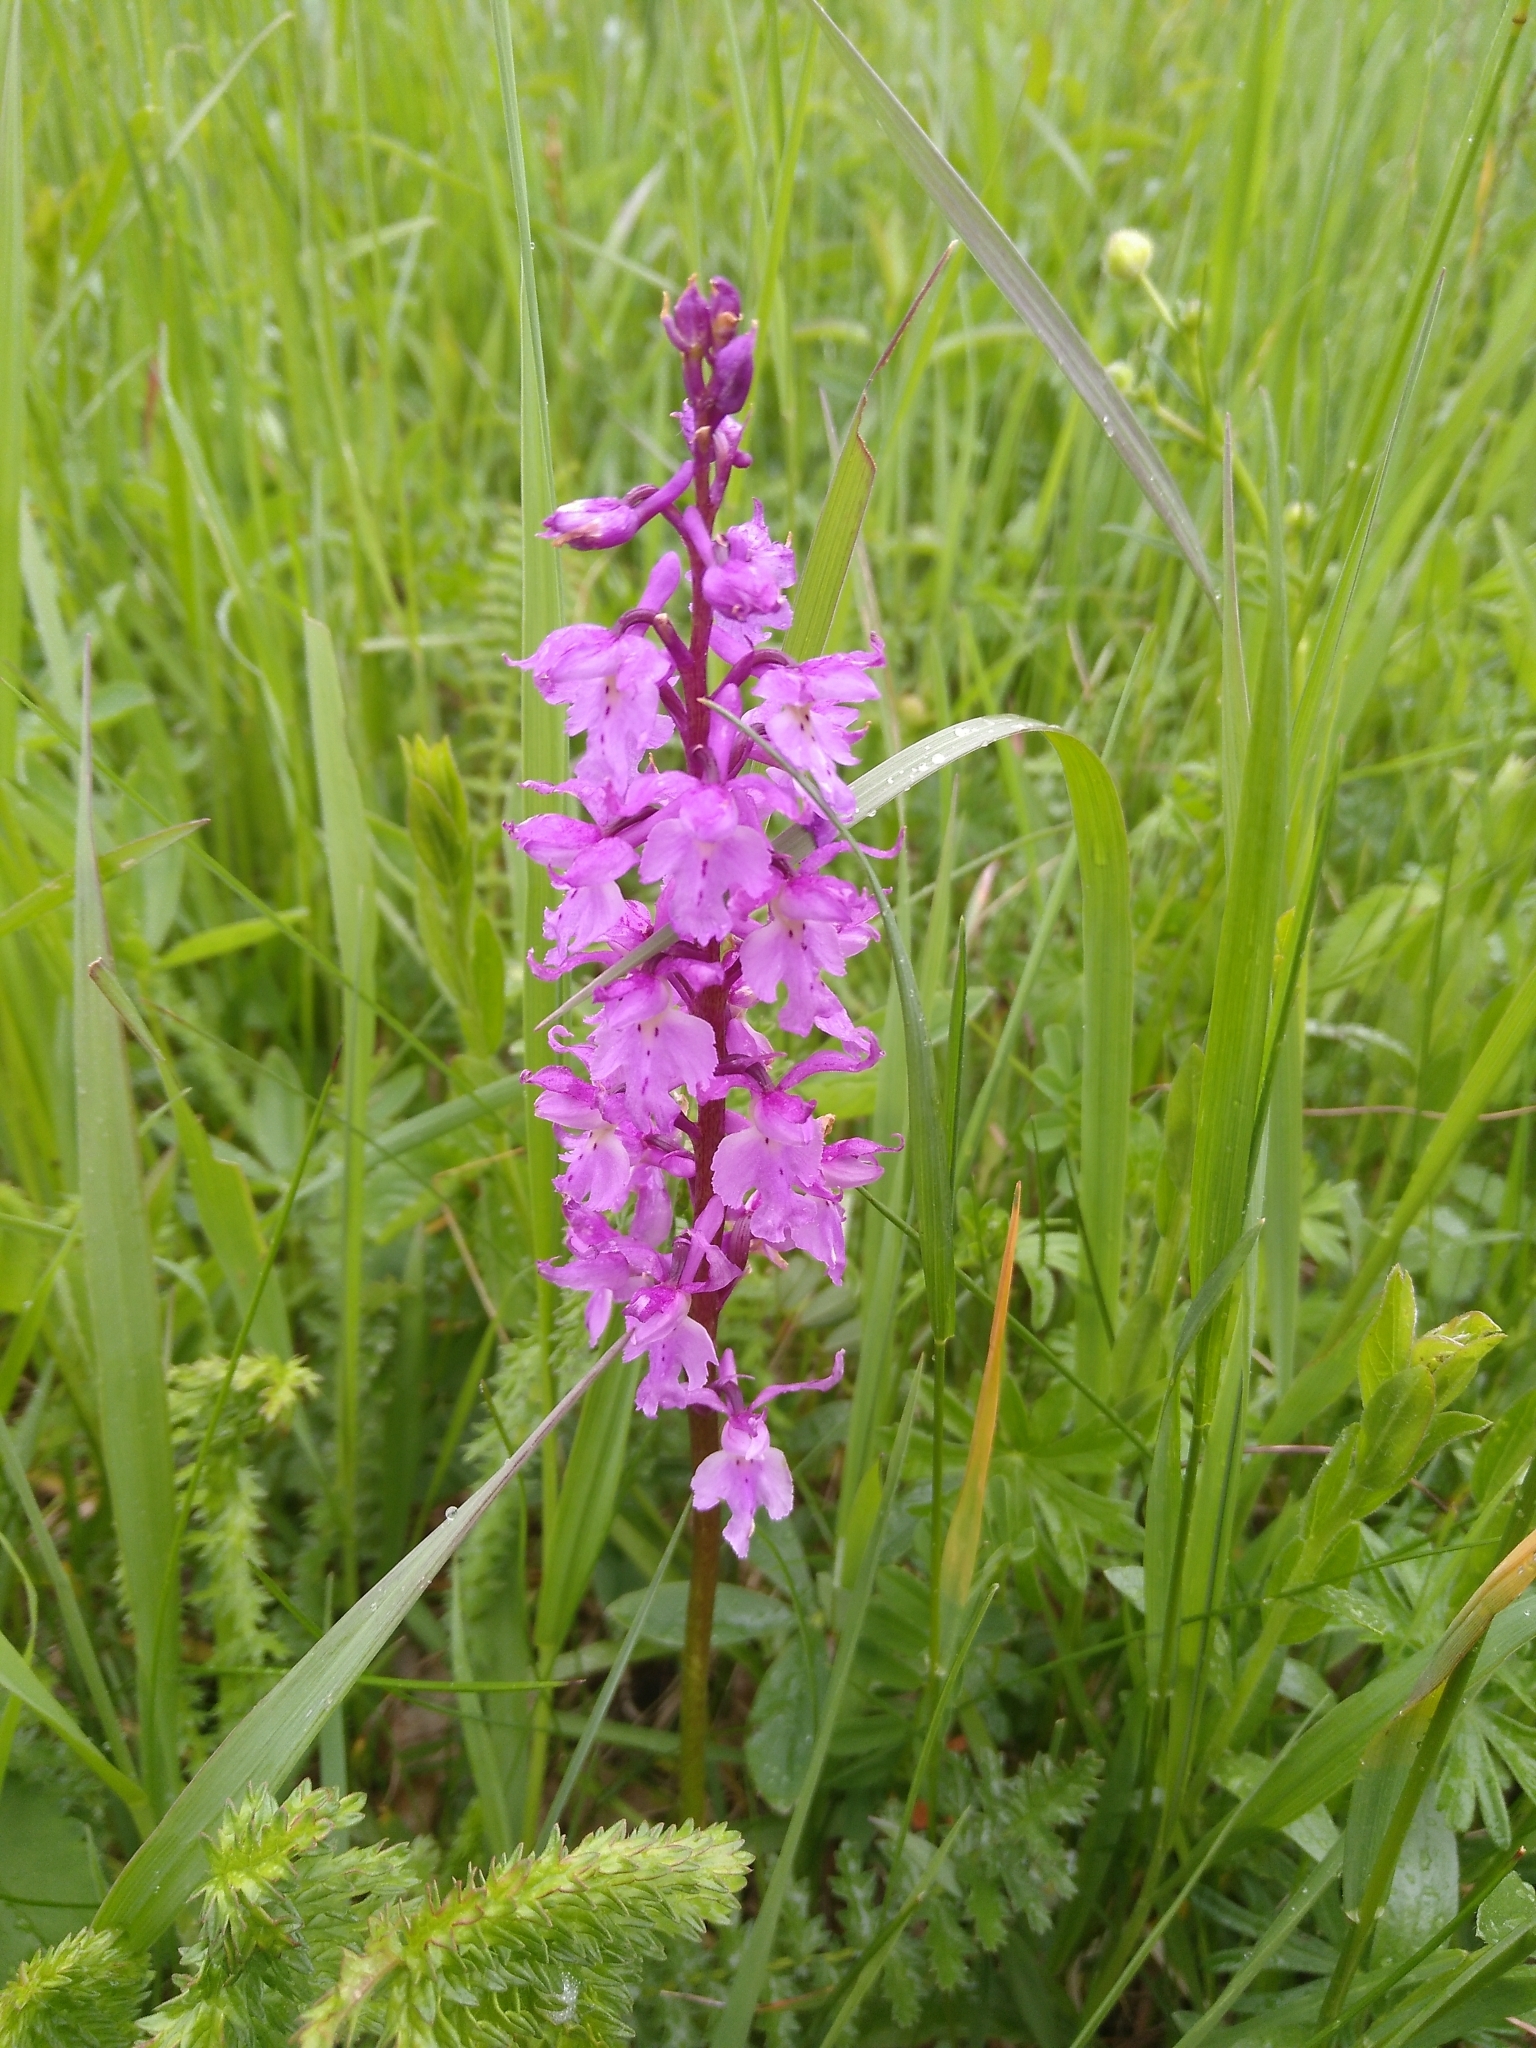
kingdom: Plantae
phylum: Tracheophyta
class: Liliopsida
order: Asparagales
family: Orchidaceae
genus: Orchis
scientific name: Orchis mascula
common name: Early-purple orchid
